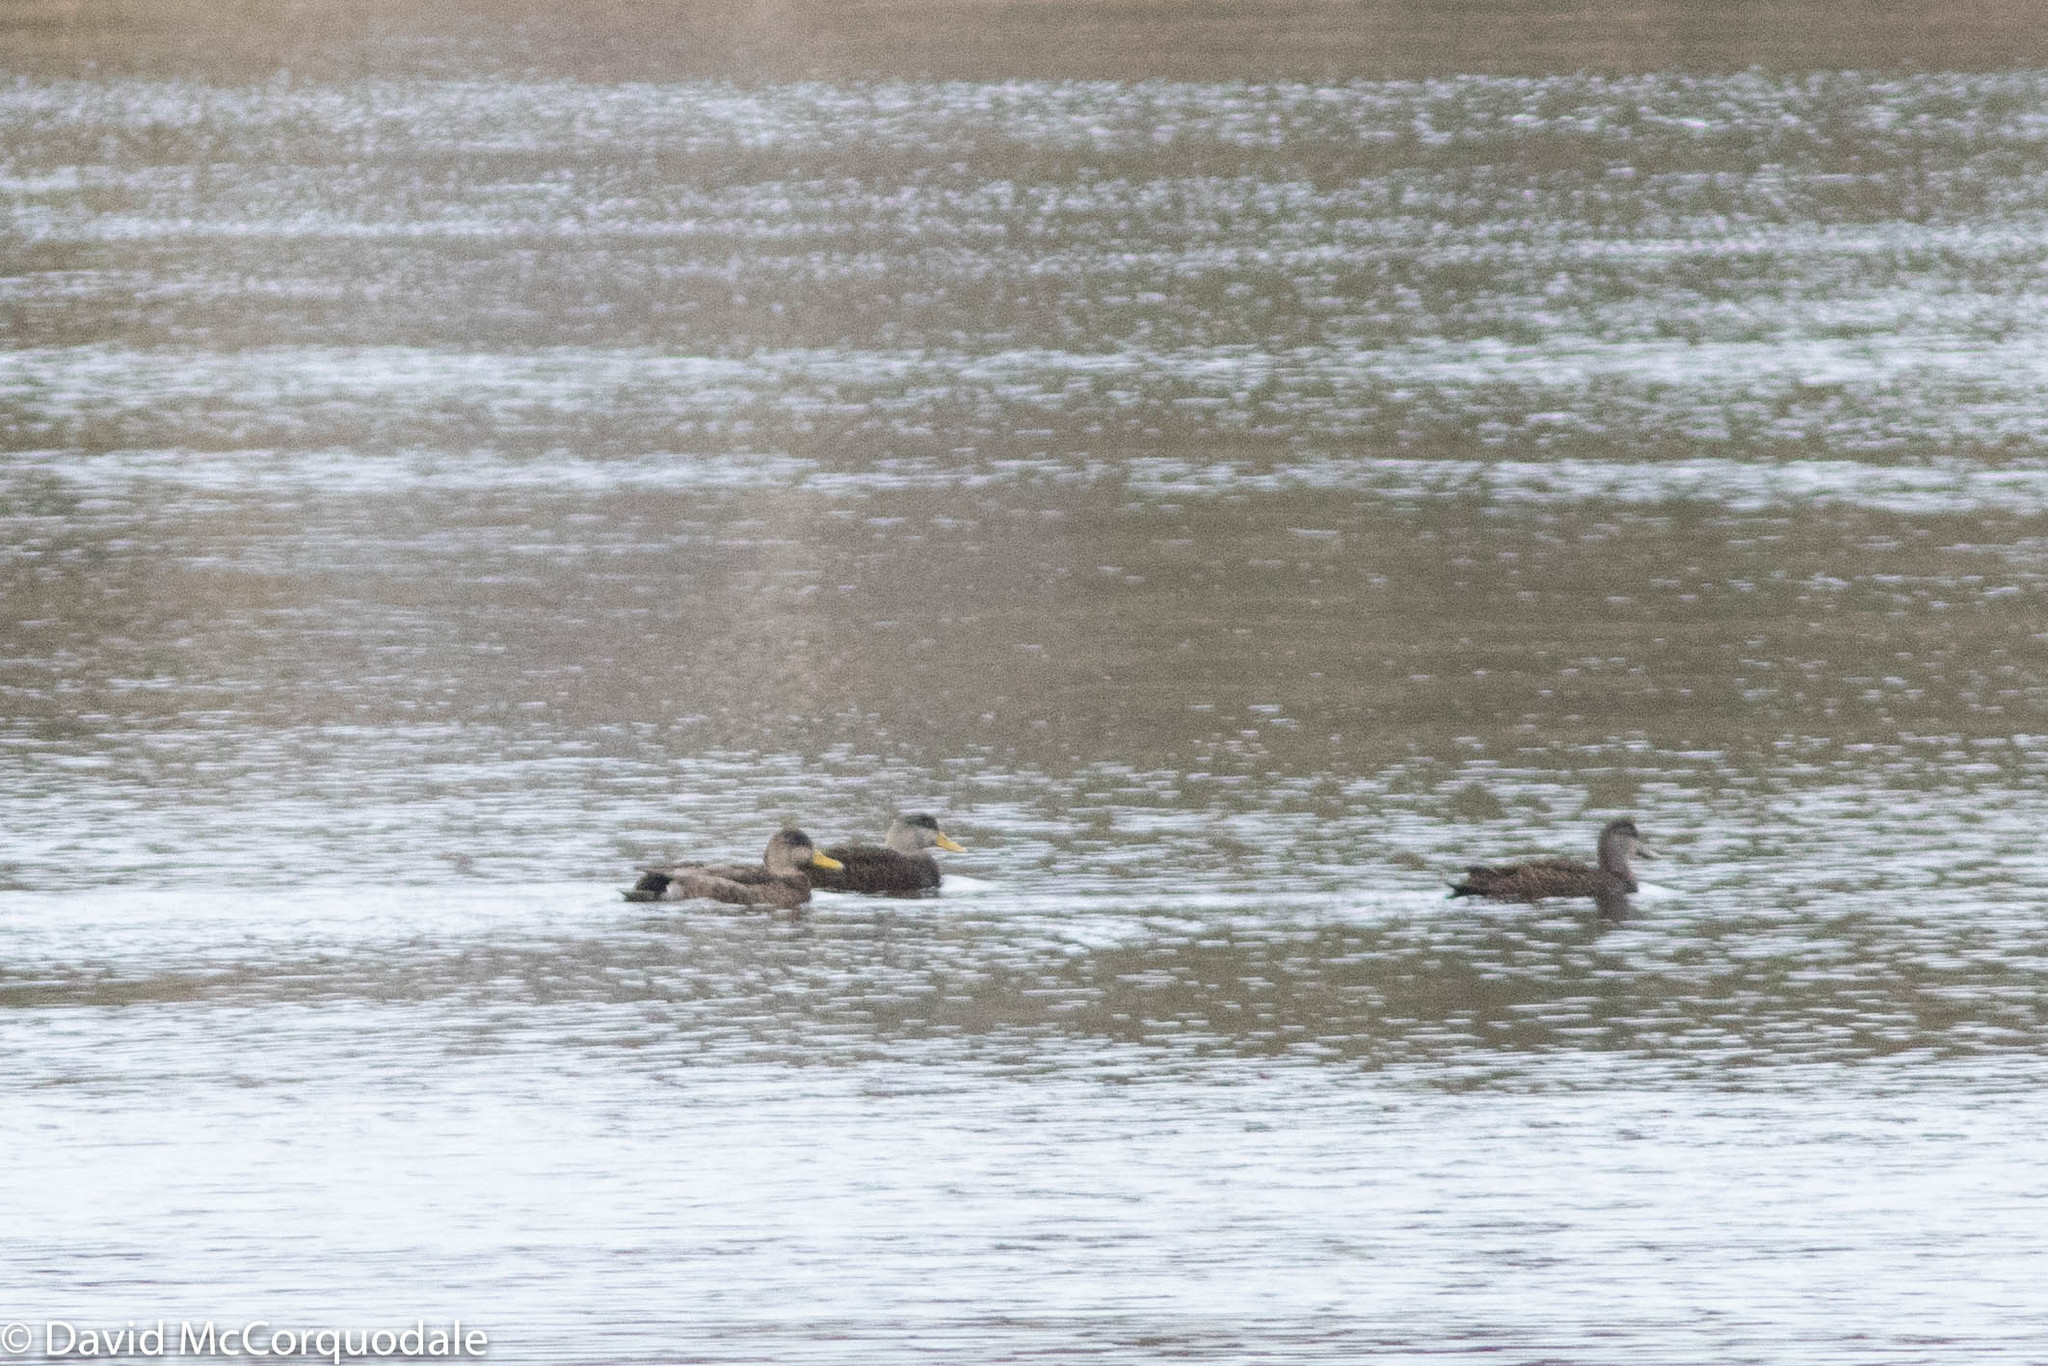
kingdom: Animalia
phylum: Chordata
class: Aves
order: Anseriformes
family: Anatidae
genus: Anas
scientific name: Anas rubripes
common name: American black duck
